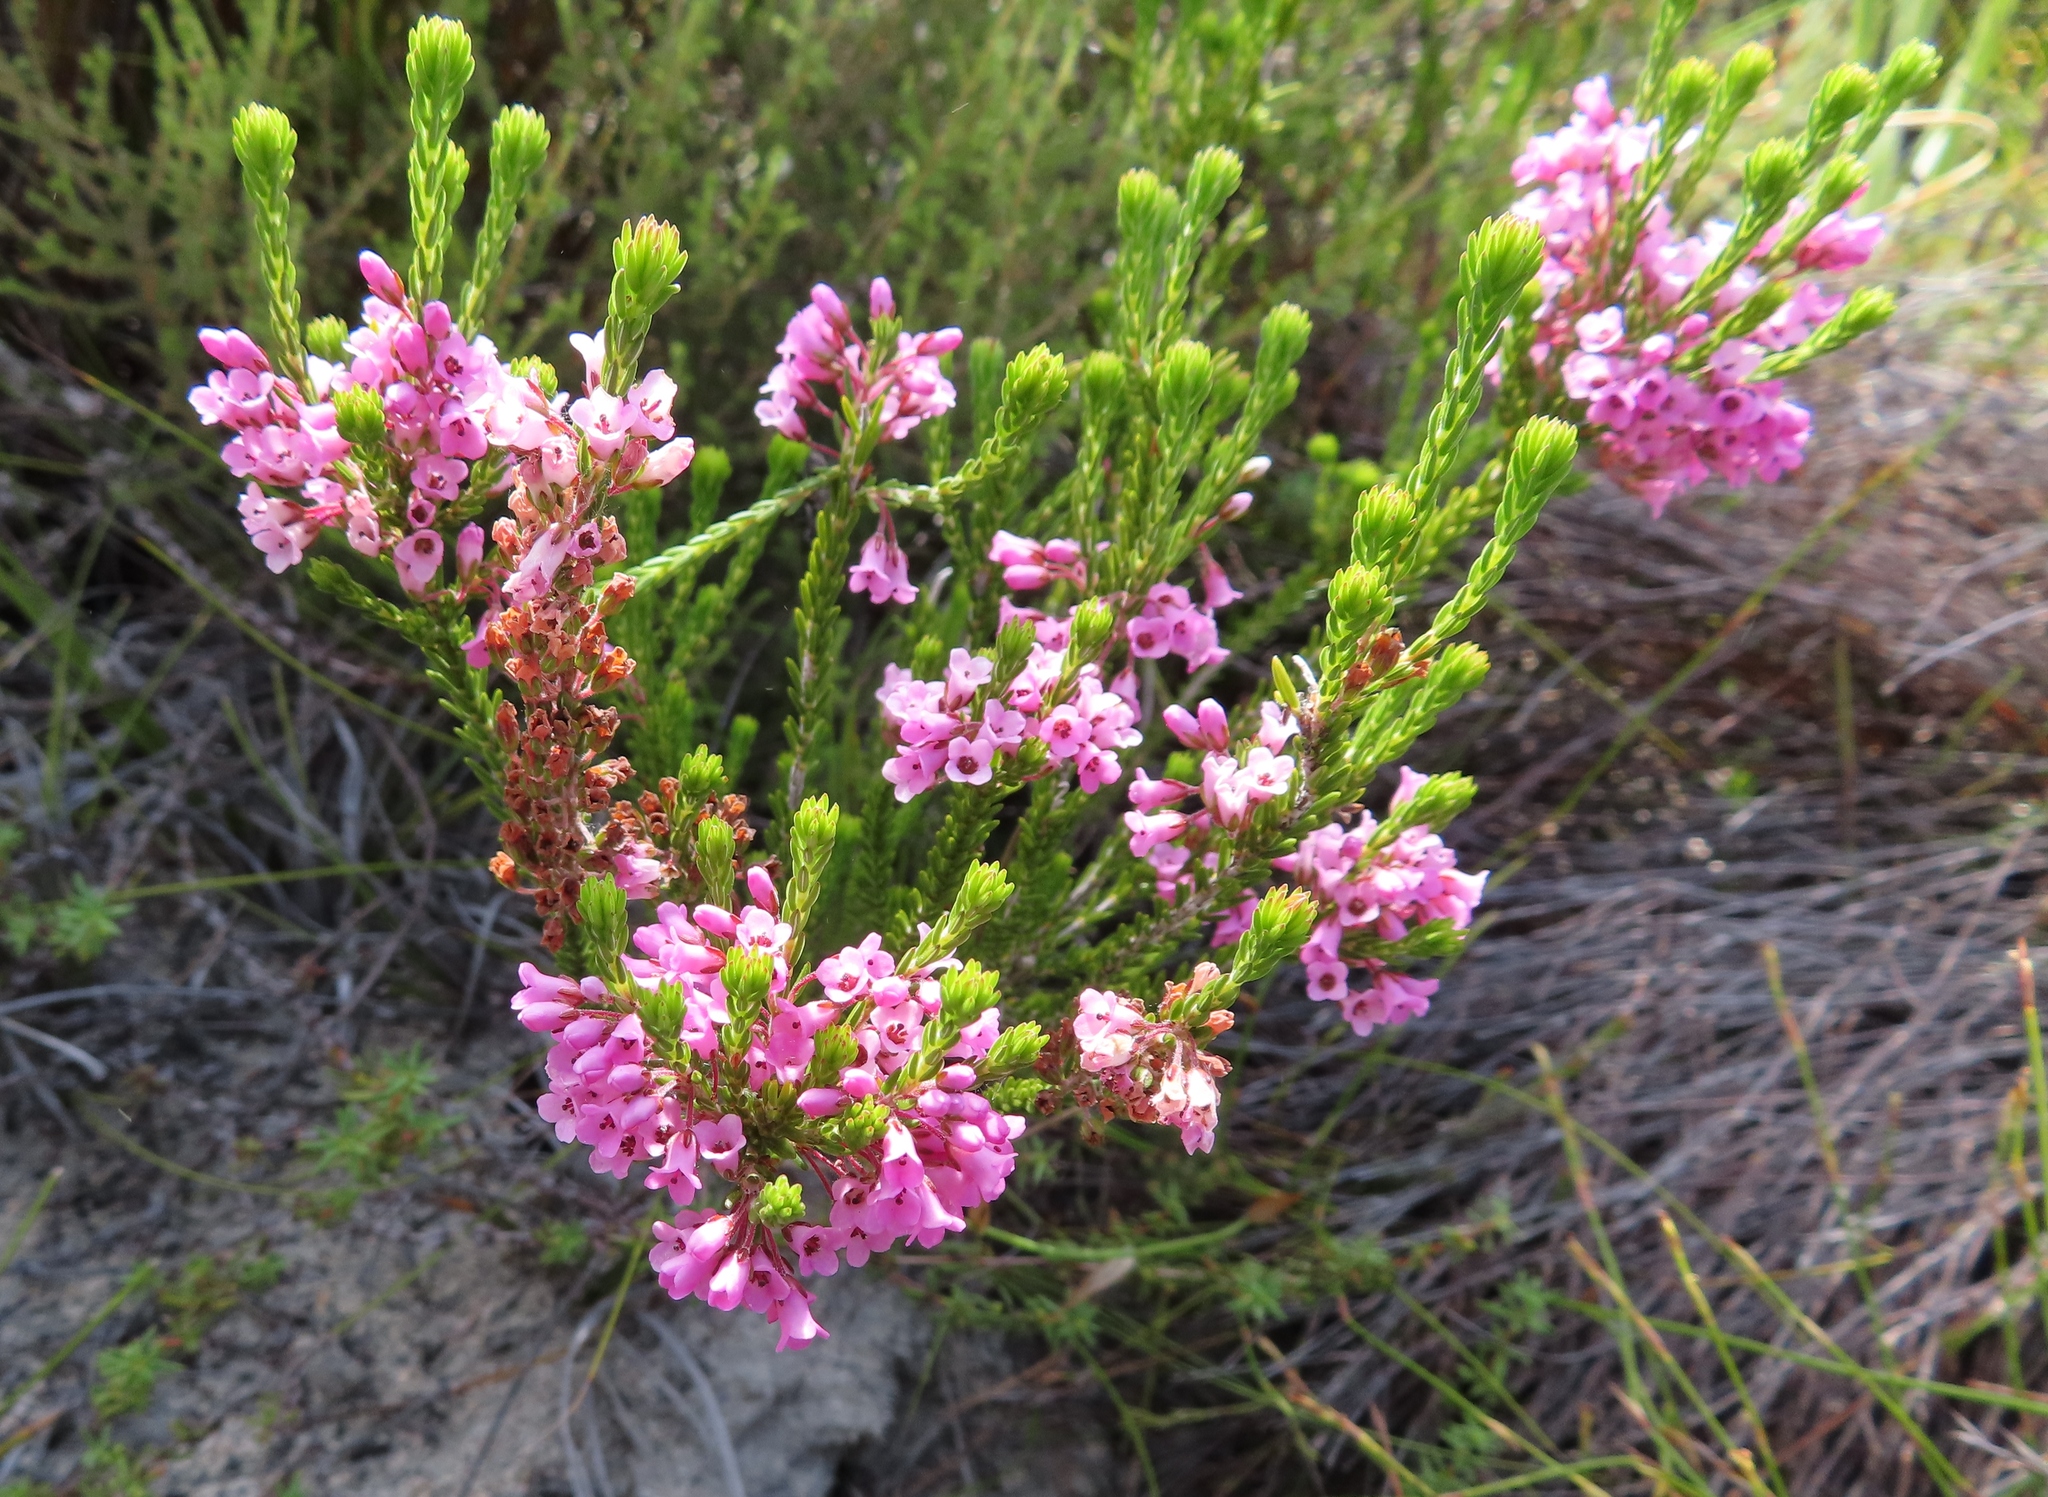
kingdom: Plantae
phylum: Tracheophyta
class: Magnoliopsida
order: Ericales
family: Ericaceae
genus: Erica
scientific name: Erica longiaristata
